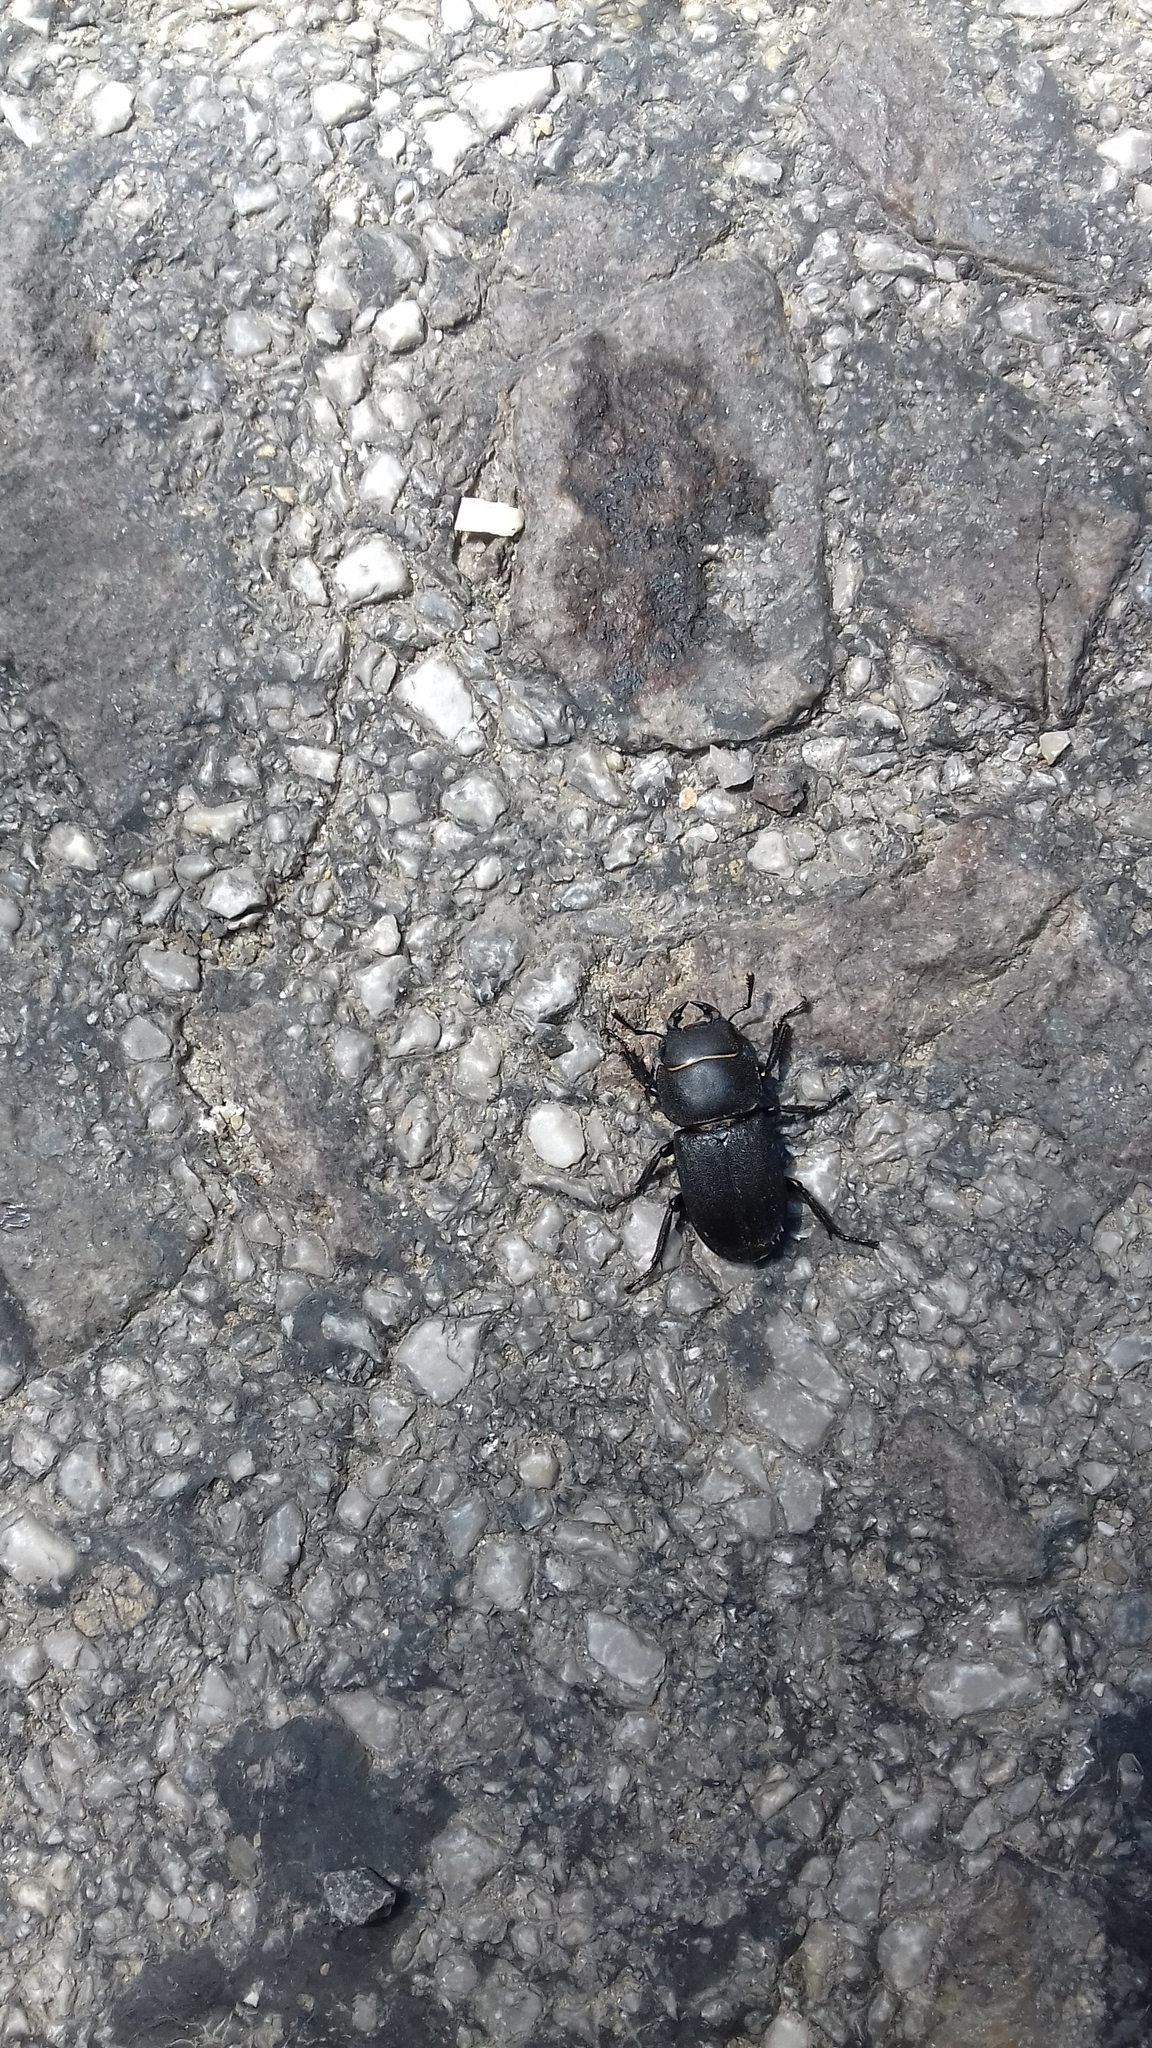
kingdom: Animalia
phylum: Arthropoda
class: Insecta
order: Coleoptera
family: Lucanidae
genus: Dorcus
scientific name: Dorcus parallelipipedus
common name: Lesser stag beetle
